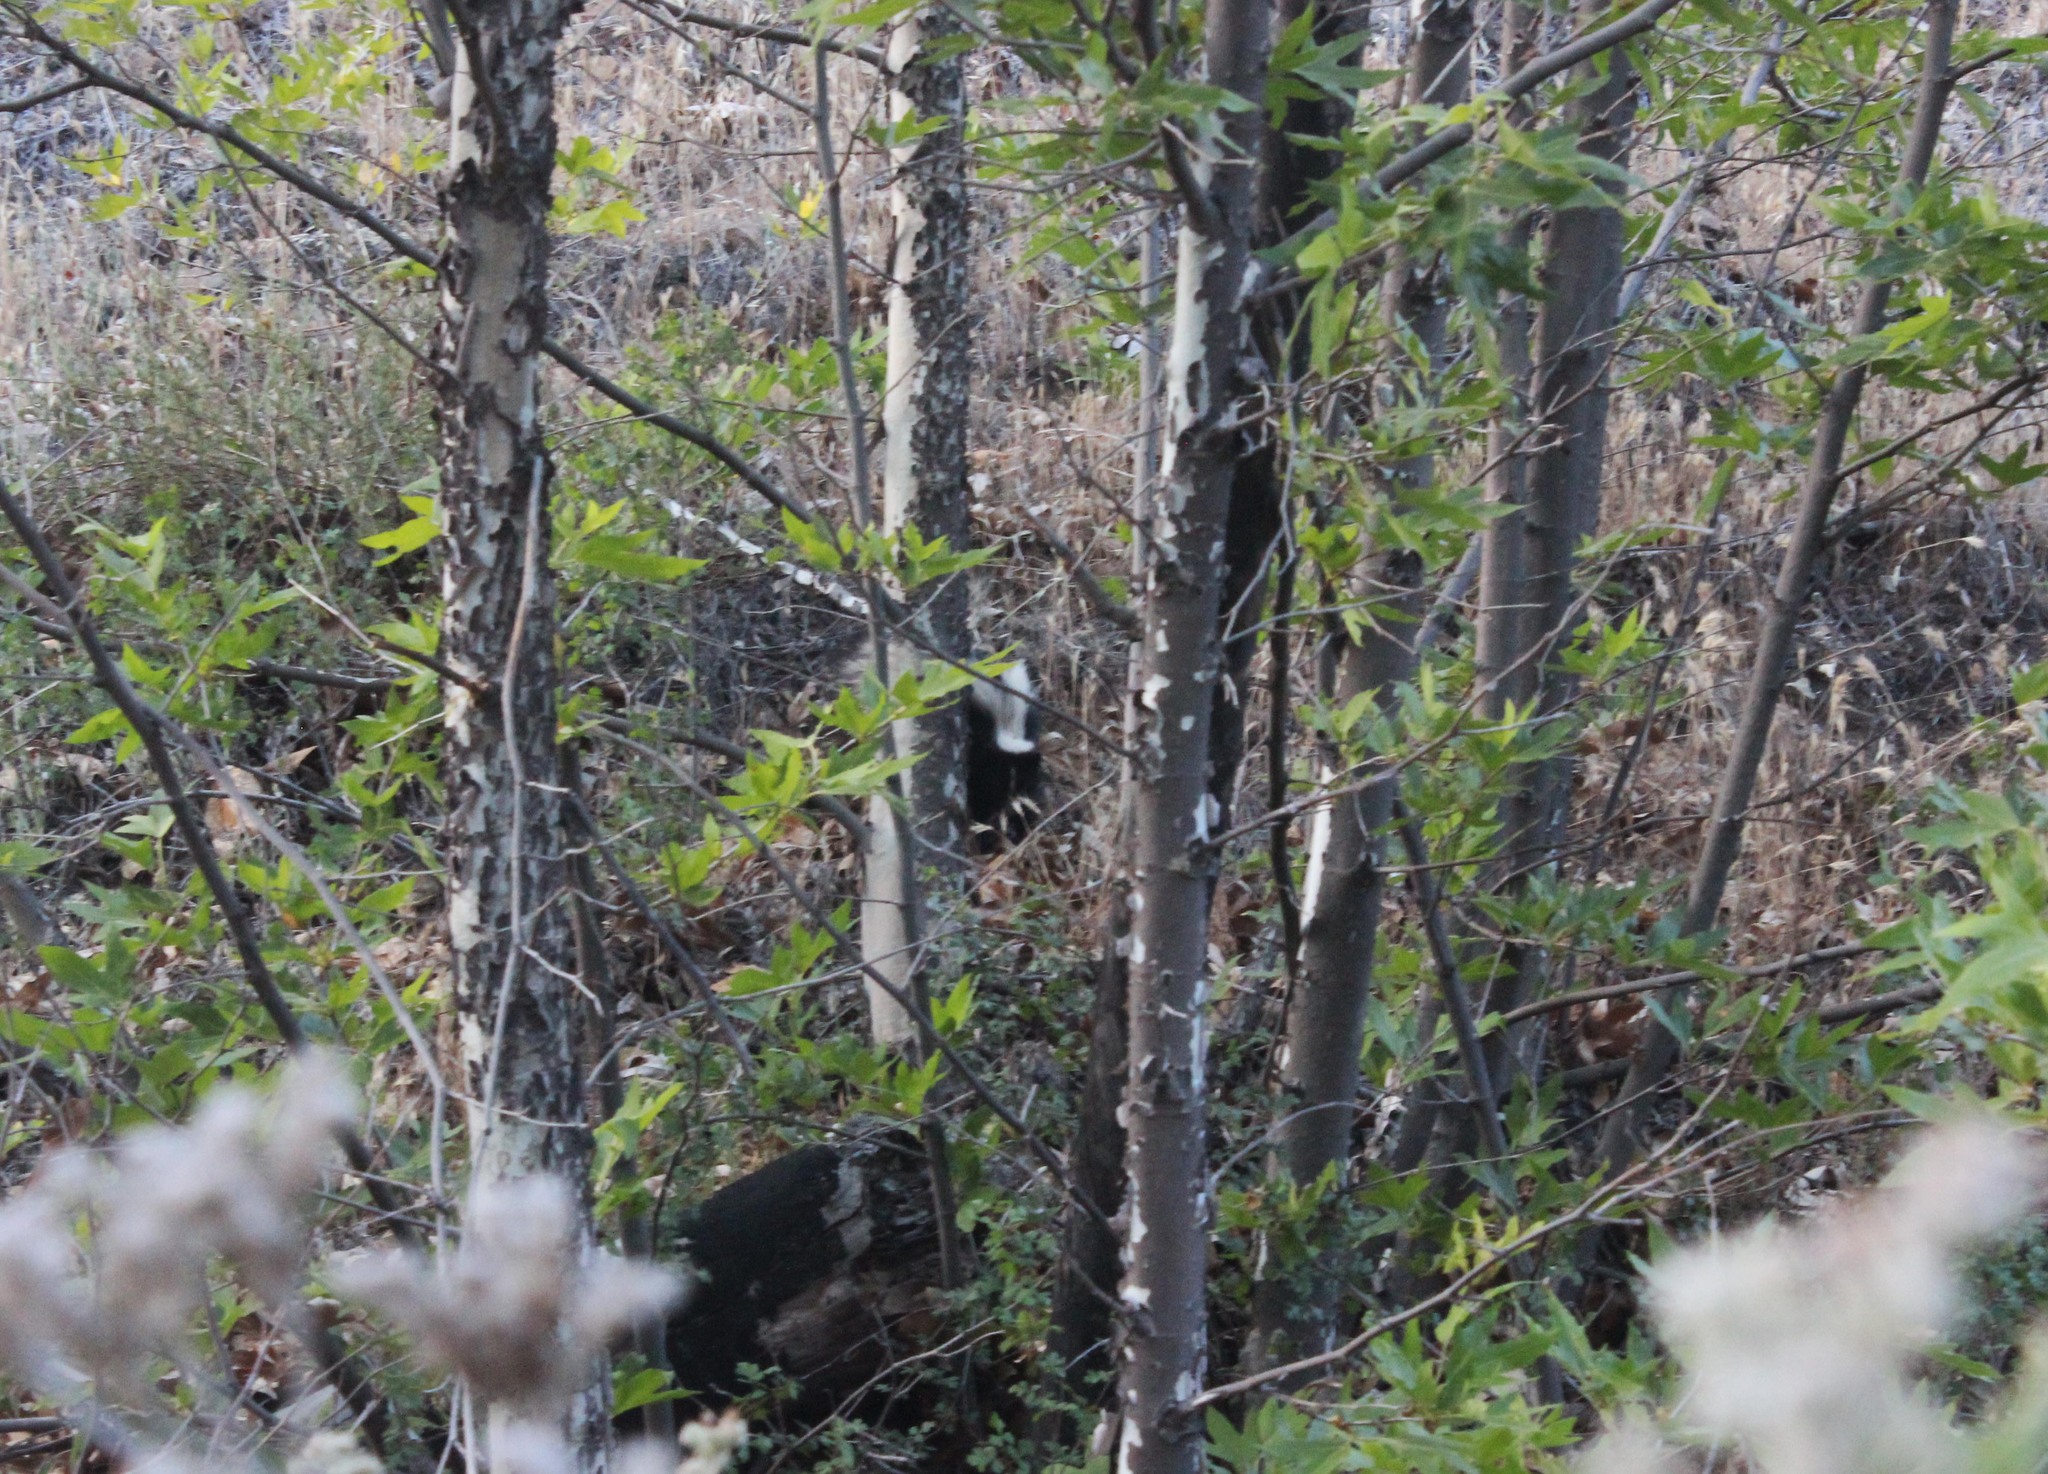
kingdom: Animalia
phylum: Chordata
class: Mammalia
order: Carnivora
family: Mephitidae
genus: Mephitis
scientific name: Mephitis mephitis
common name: Striped skunk
